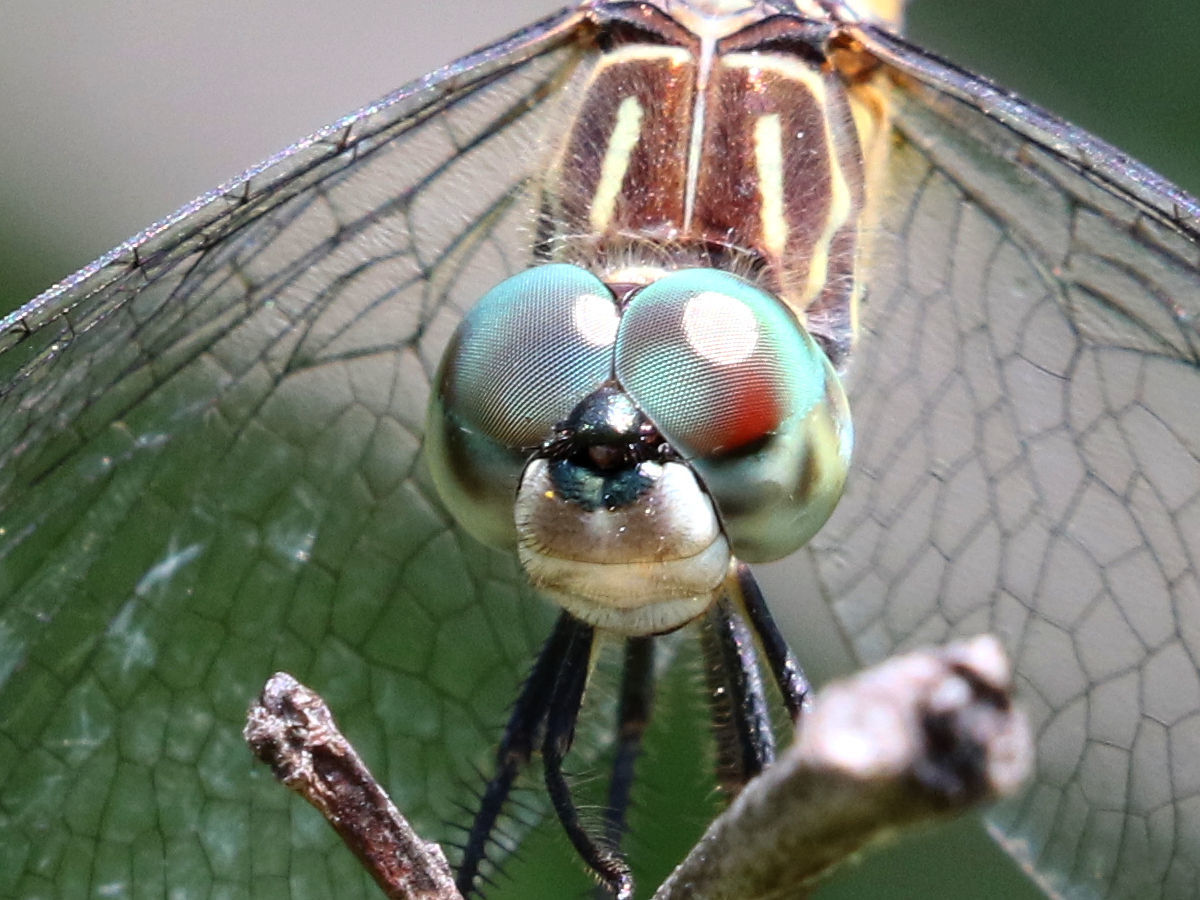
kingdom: Animalia
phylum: Arthropoda
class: Insecta
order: Odonata
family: Libellulidae
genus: Pachydiplax
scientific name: Pachydiplax longipennis
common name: Blue dasher
